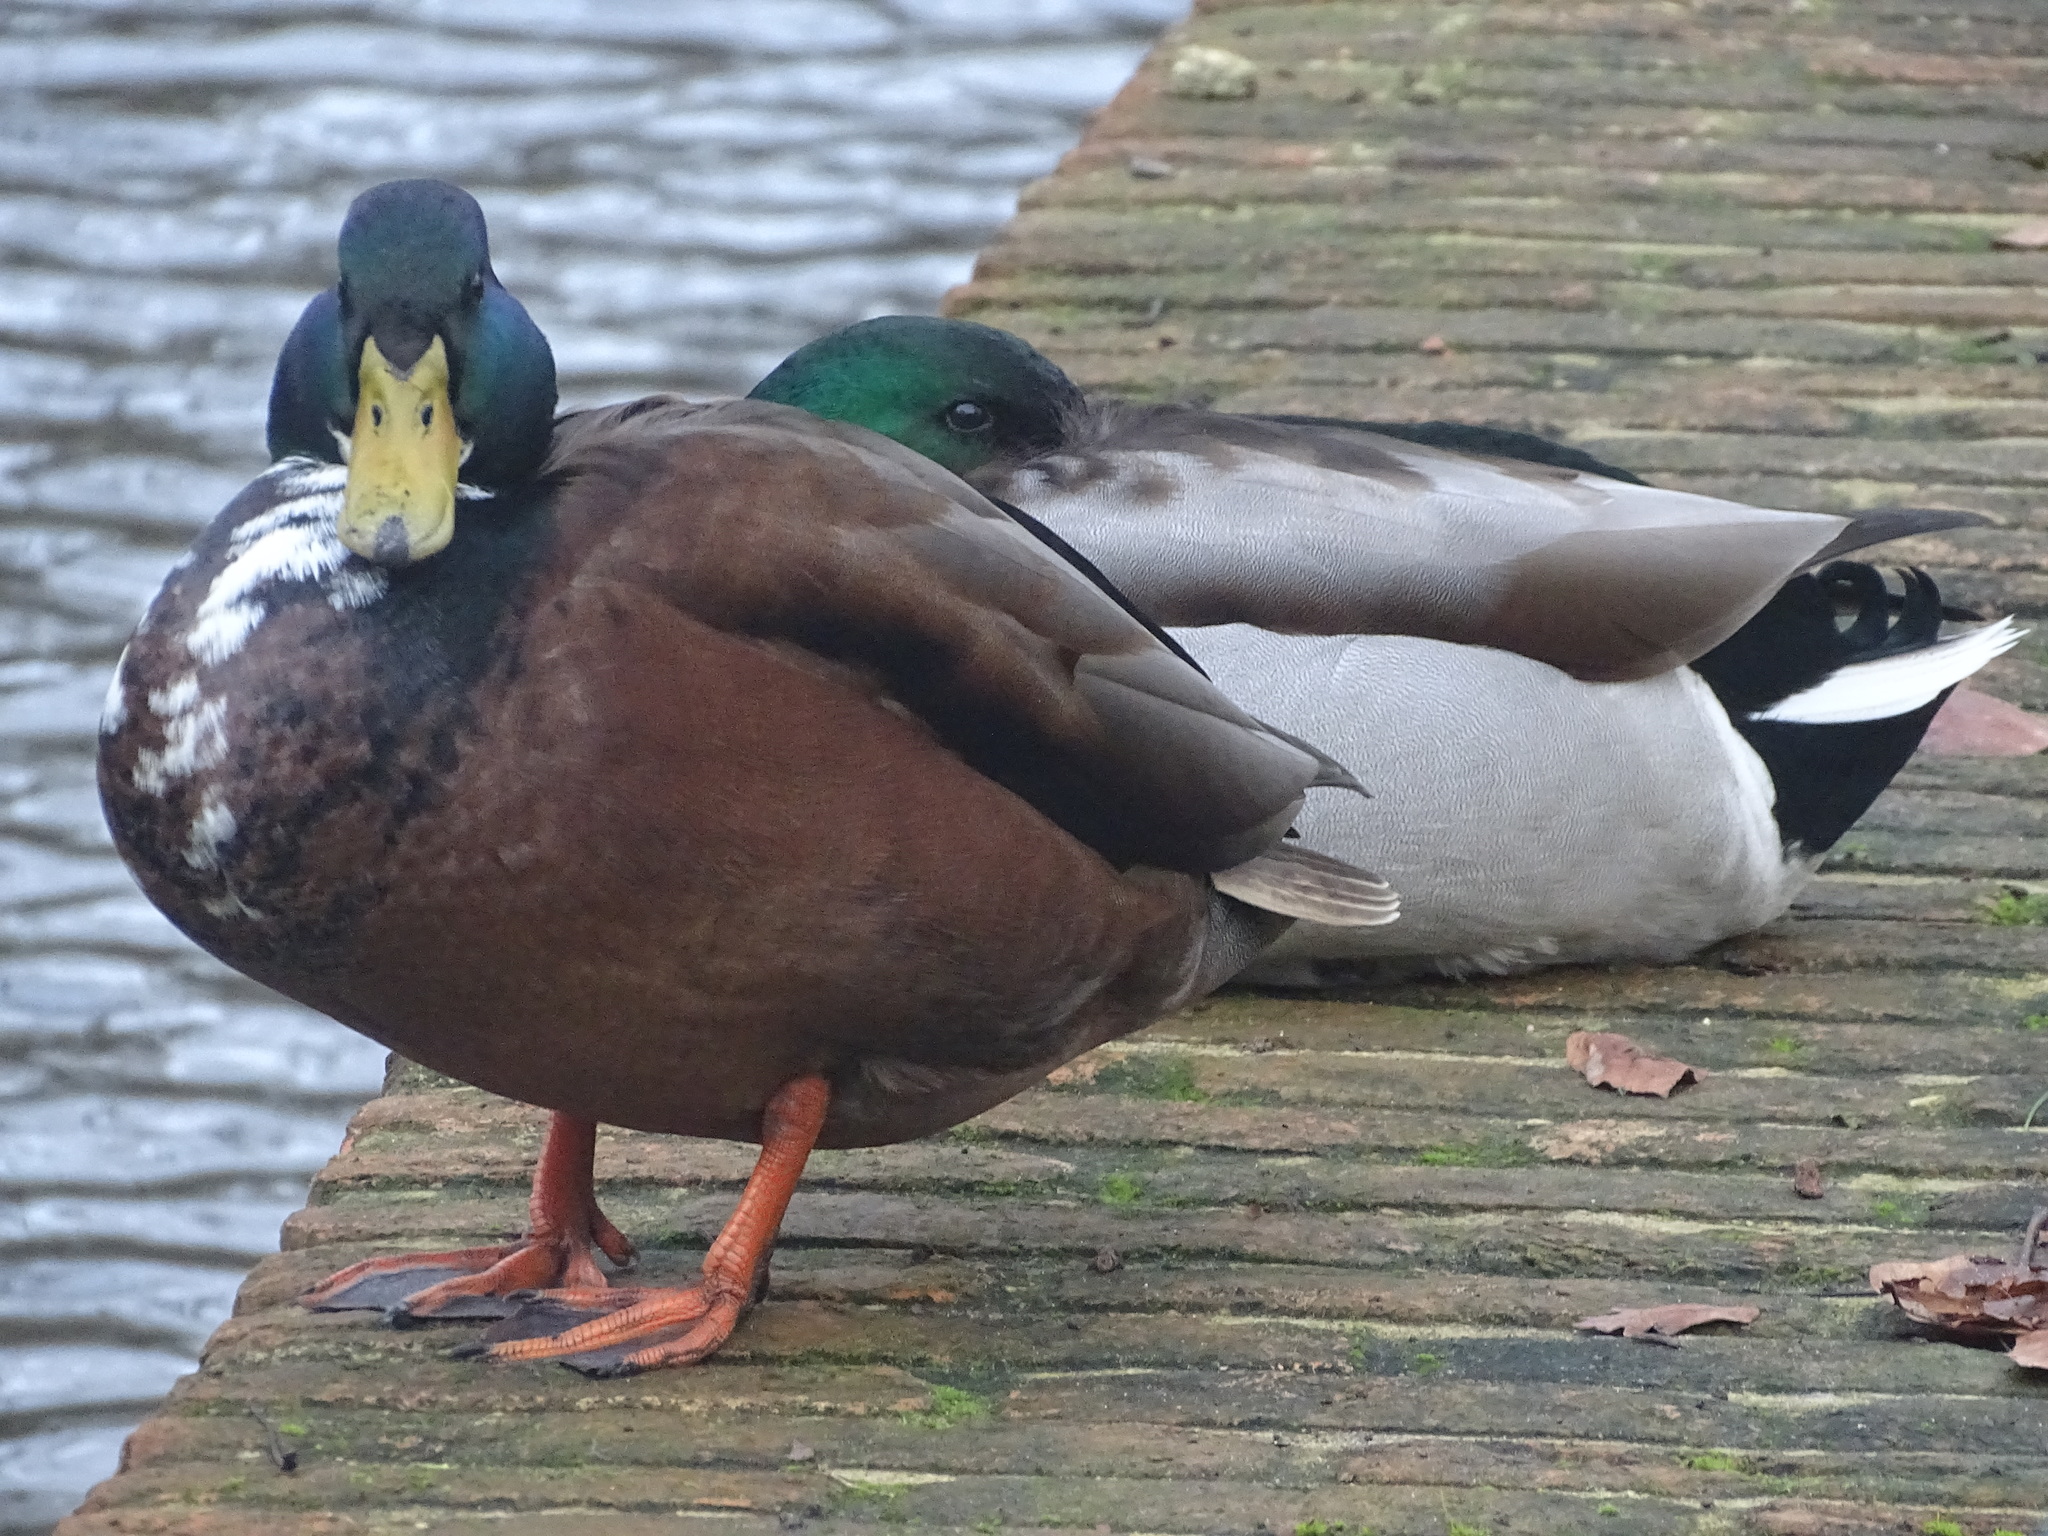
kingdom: Animalia
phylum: Chordata
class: Aves
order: Anseriformes
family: Anatidae
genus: Anas
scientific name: Anas platyrhynchos
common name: Mallard
